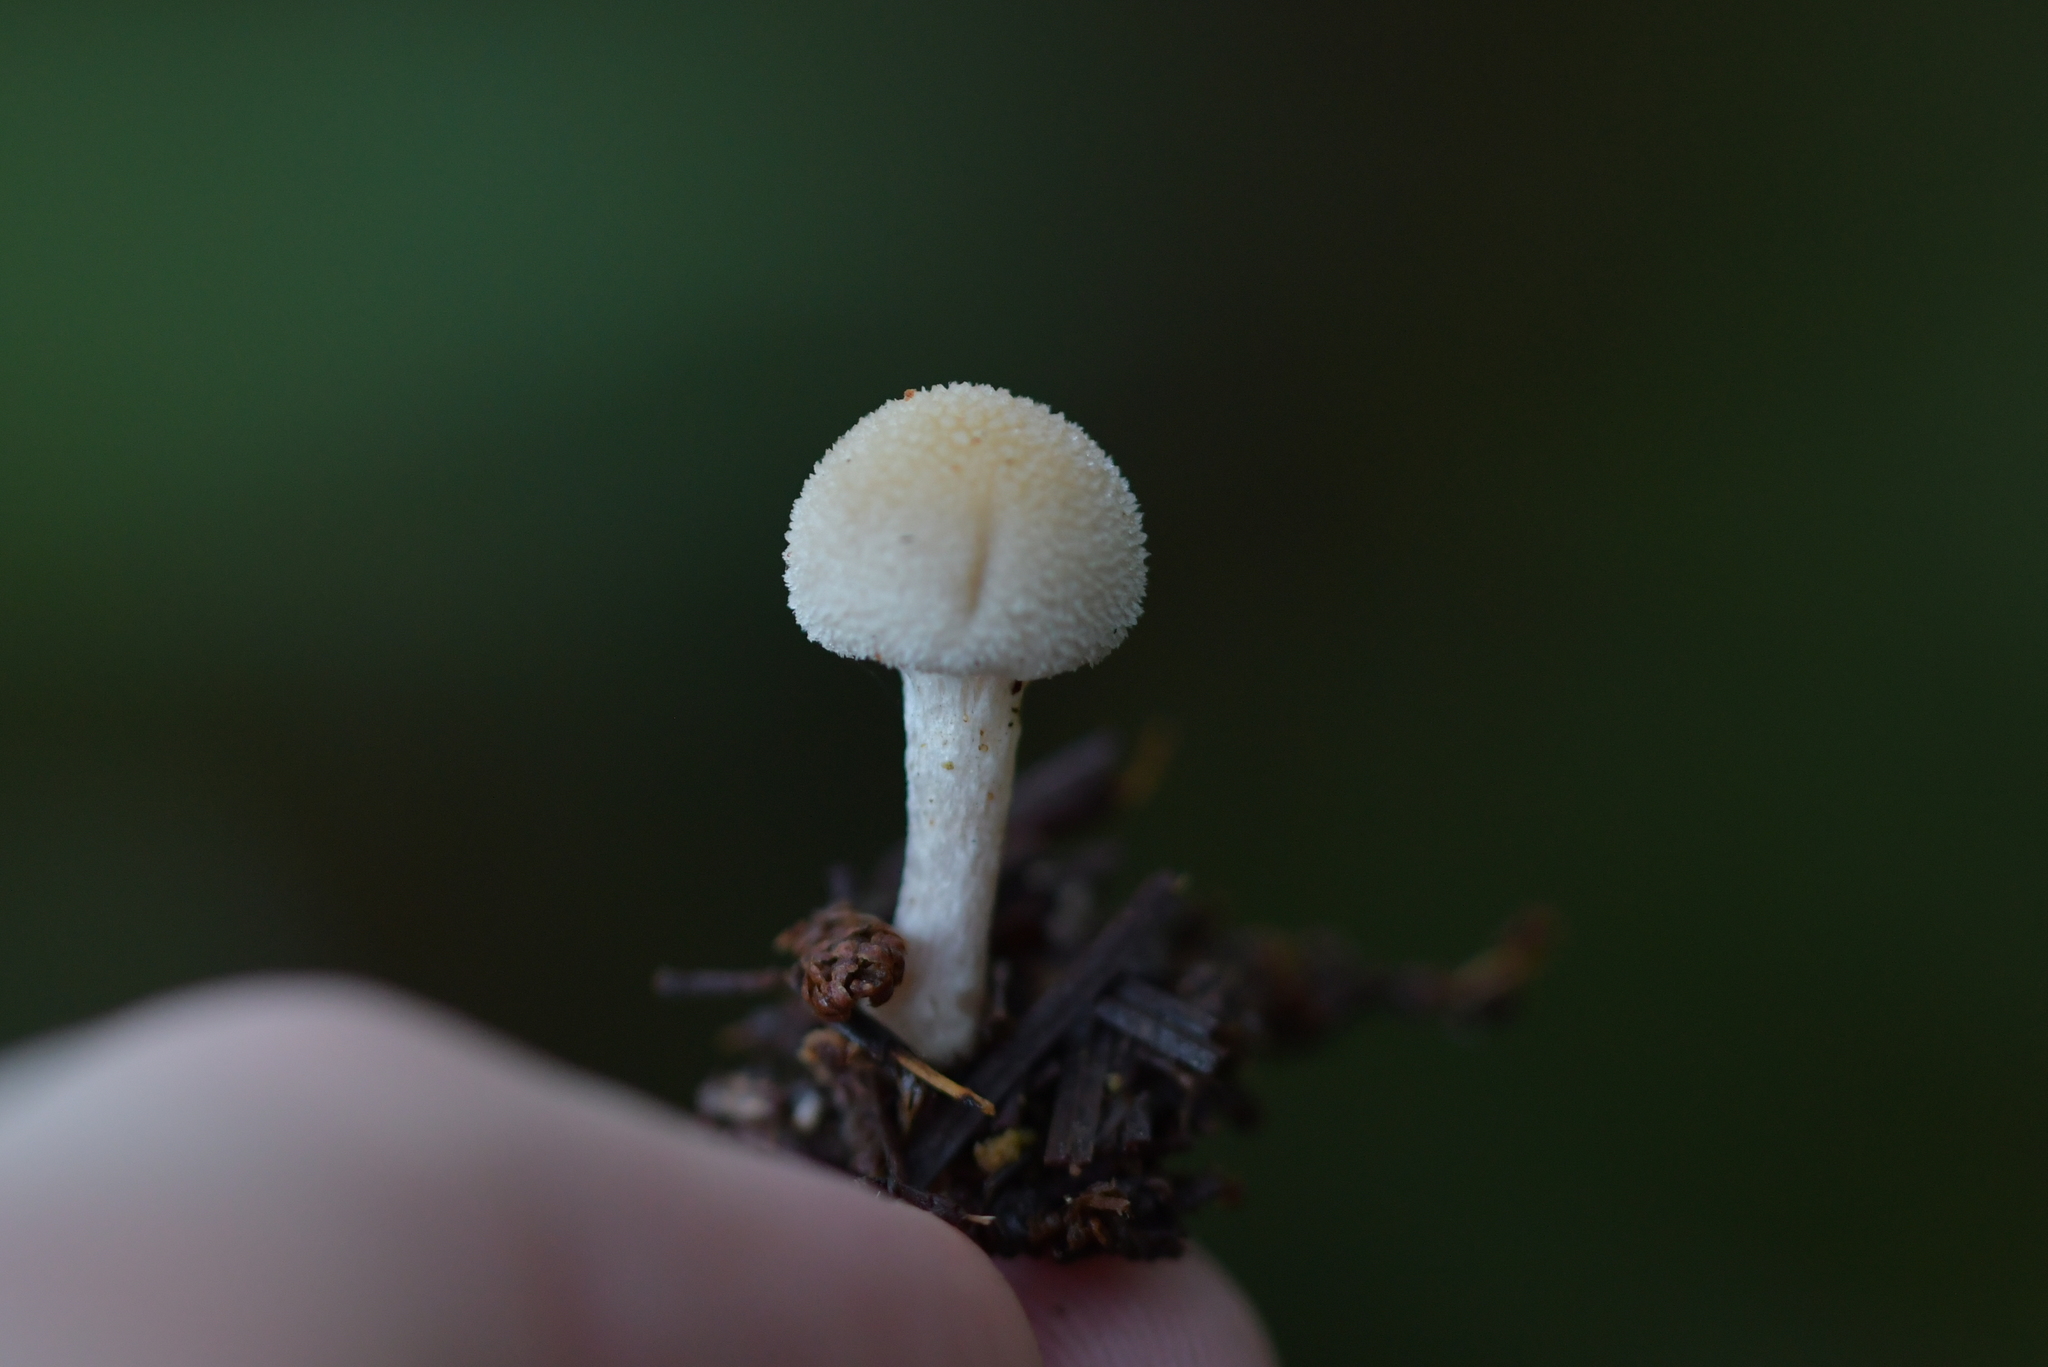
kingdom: Fungi
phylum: Basidiomycota
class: Agaricomycetes
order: Agaricales
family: Bolbitiaceae
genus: Tympanella
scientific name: Tympanella galanthina
